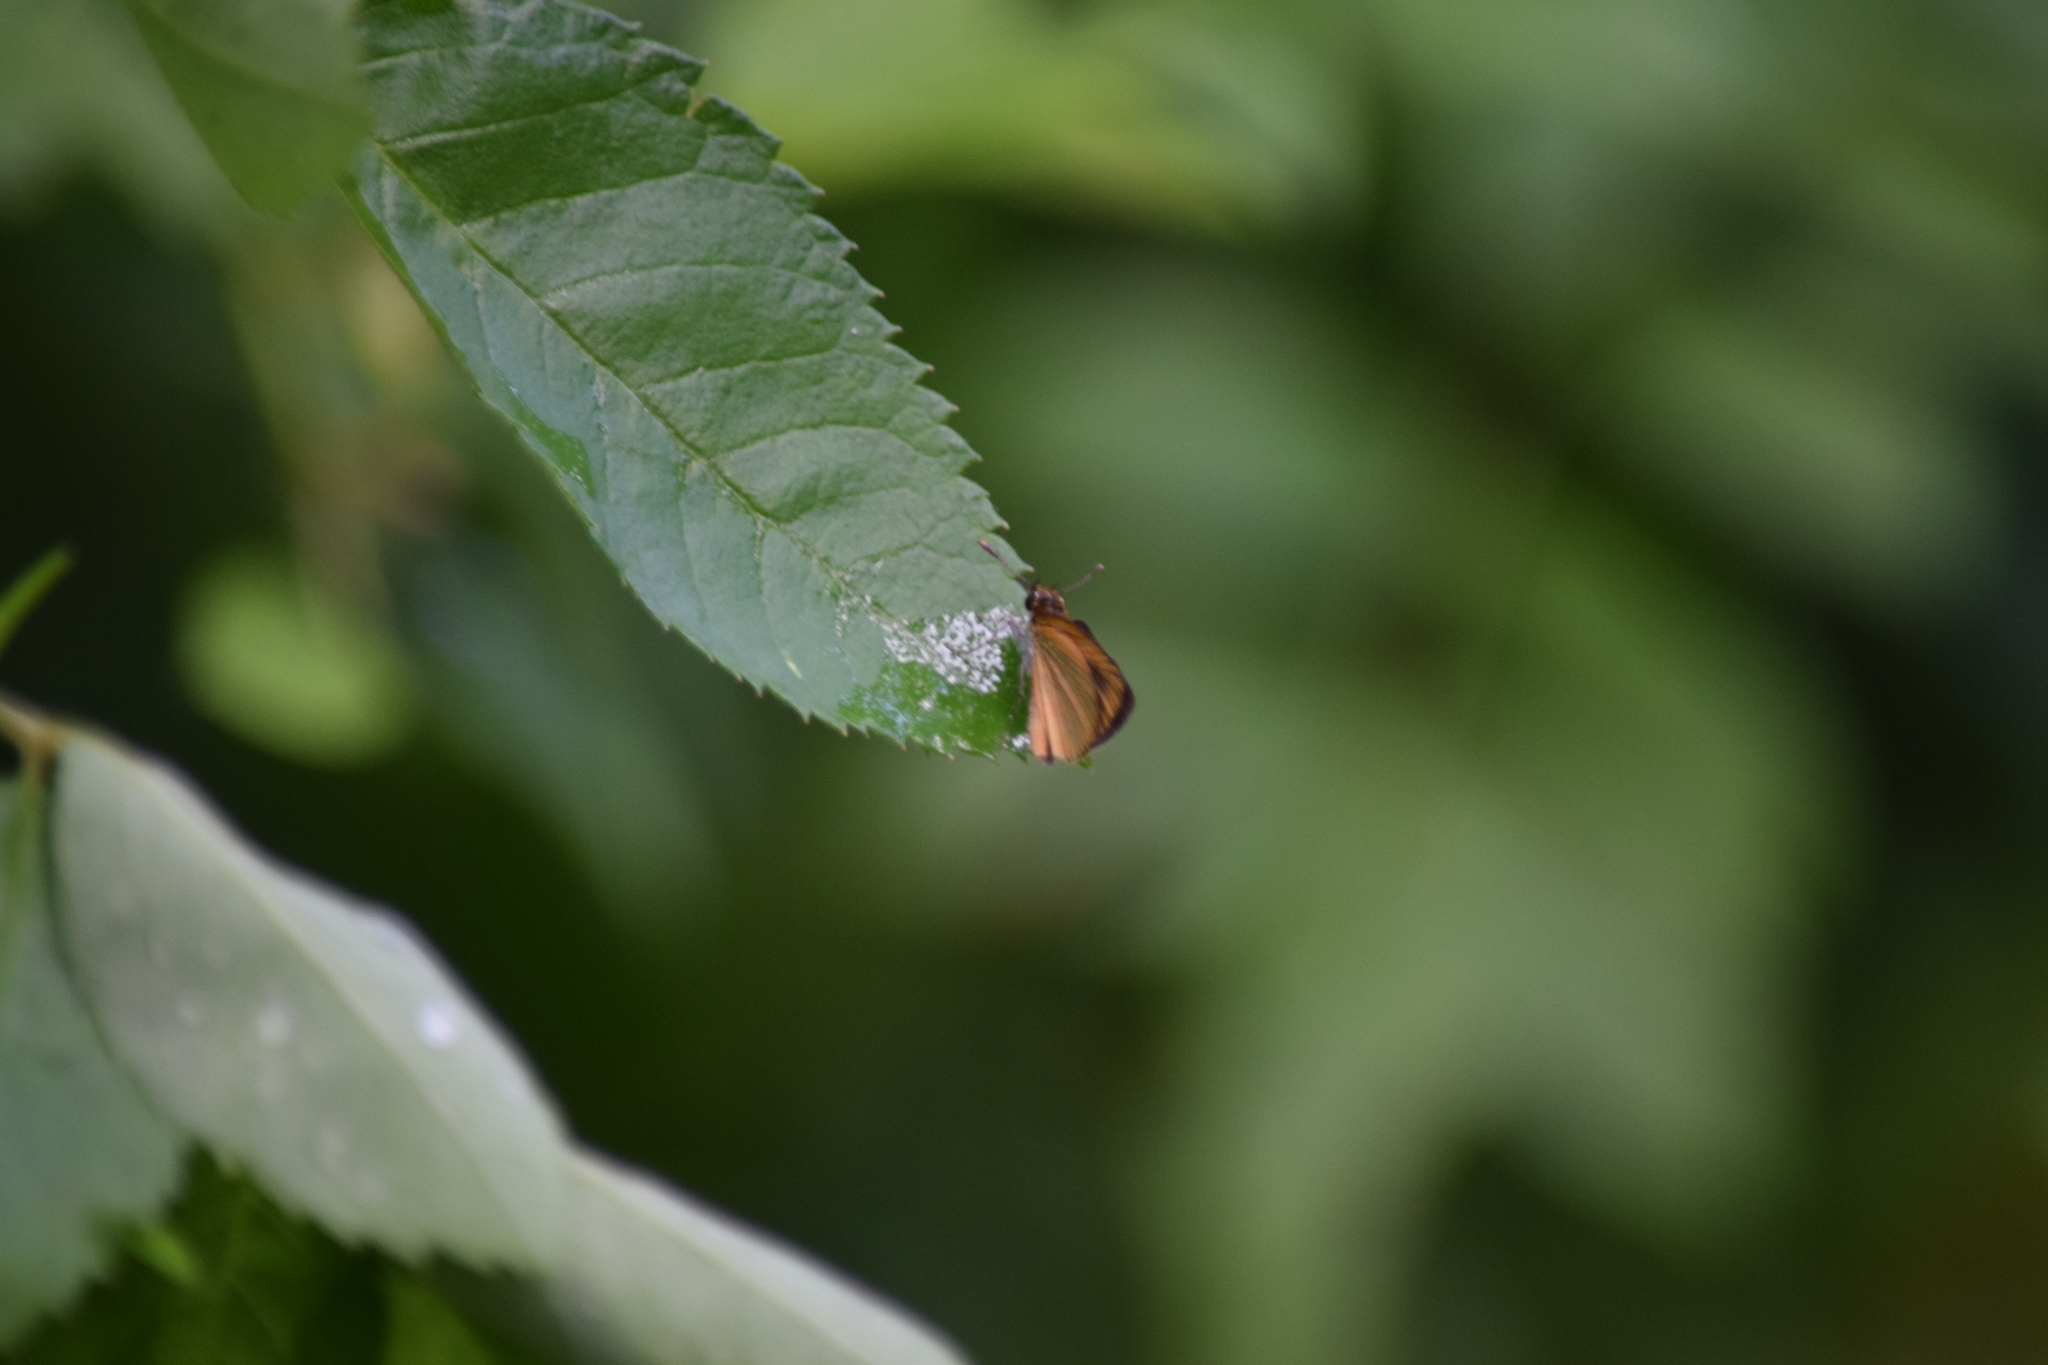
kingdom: Animalia
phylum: Arthropoda
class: Insecta
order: Lepidoptera
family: Hesperiidae
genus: Ancyloxypha
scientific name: Ancyloxypha numitor
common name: Least skipper
